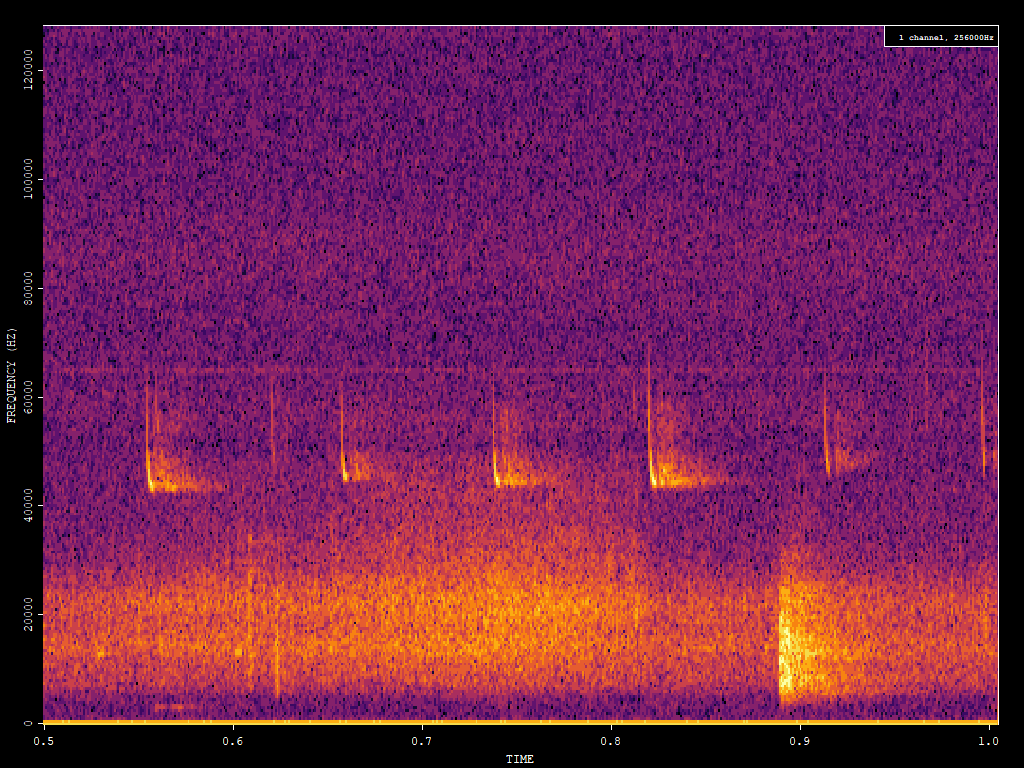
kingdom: Animalia
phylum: Chordata
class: Mammalia
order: Chiroptera
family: Vespertilionidae
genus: Pipistrellus
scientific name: Pipistrellus pipistrellus
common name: Common pipistrelle
